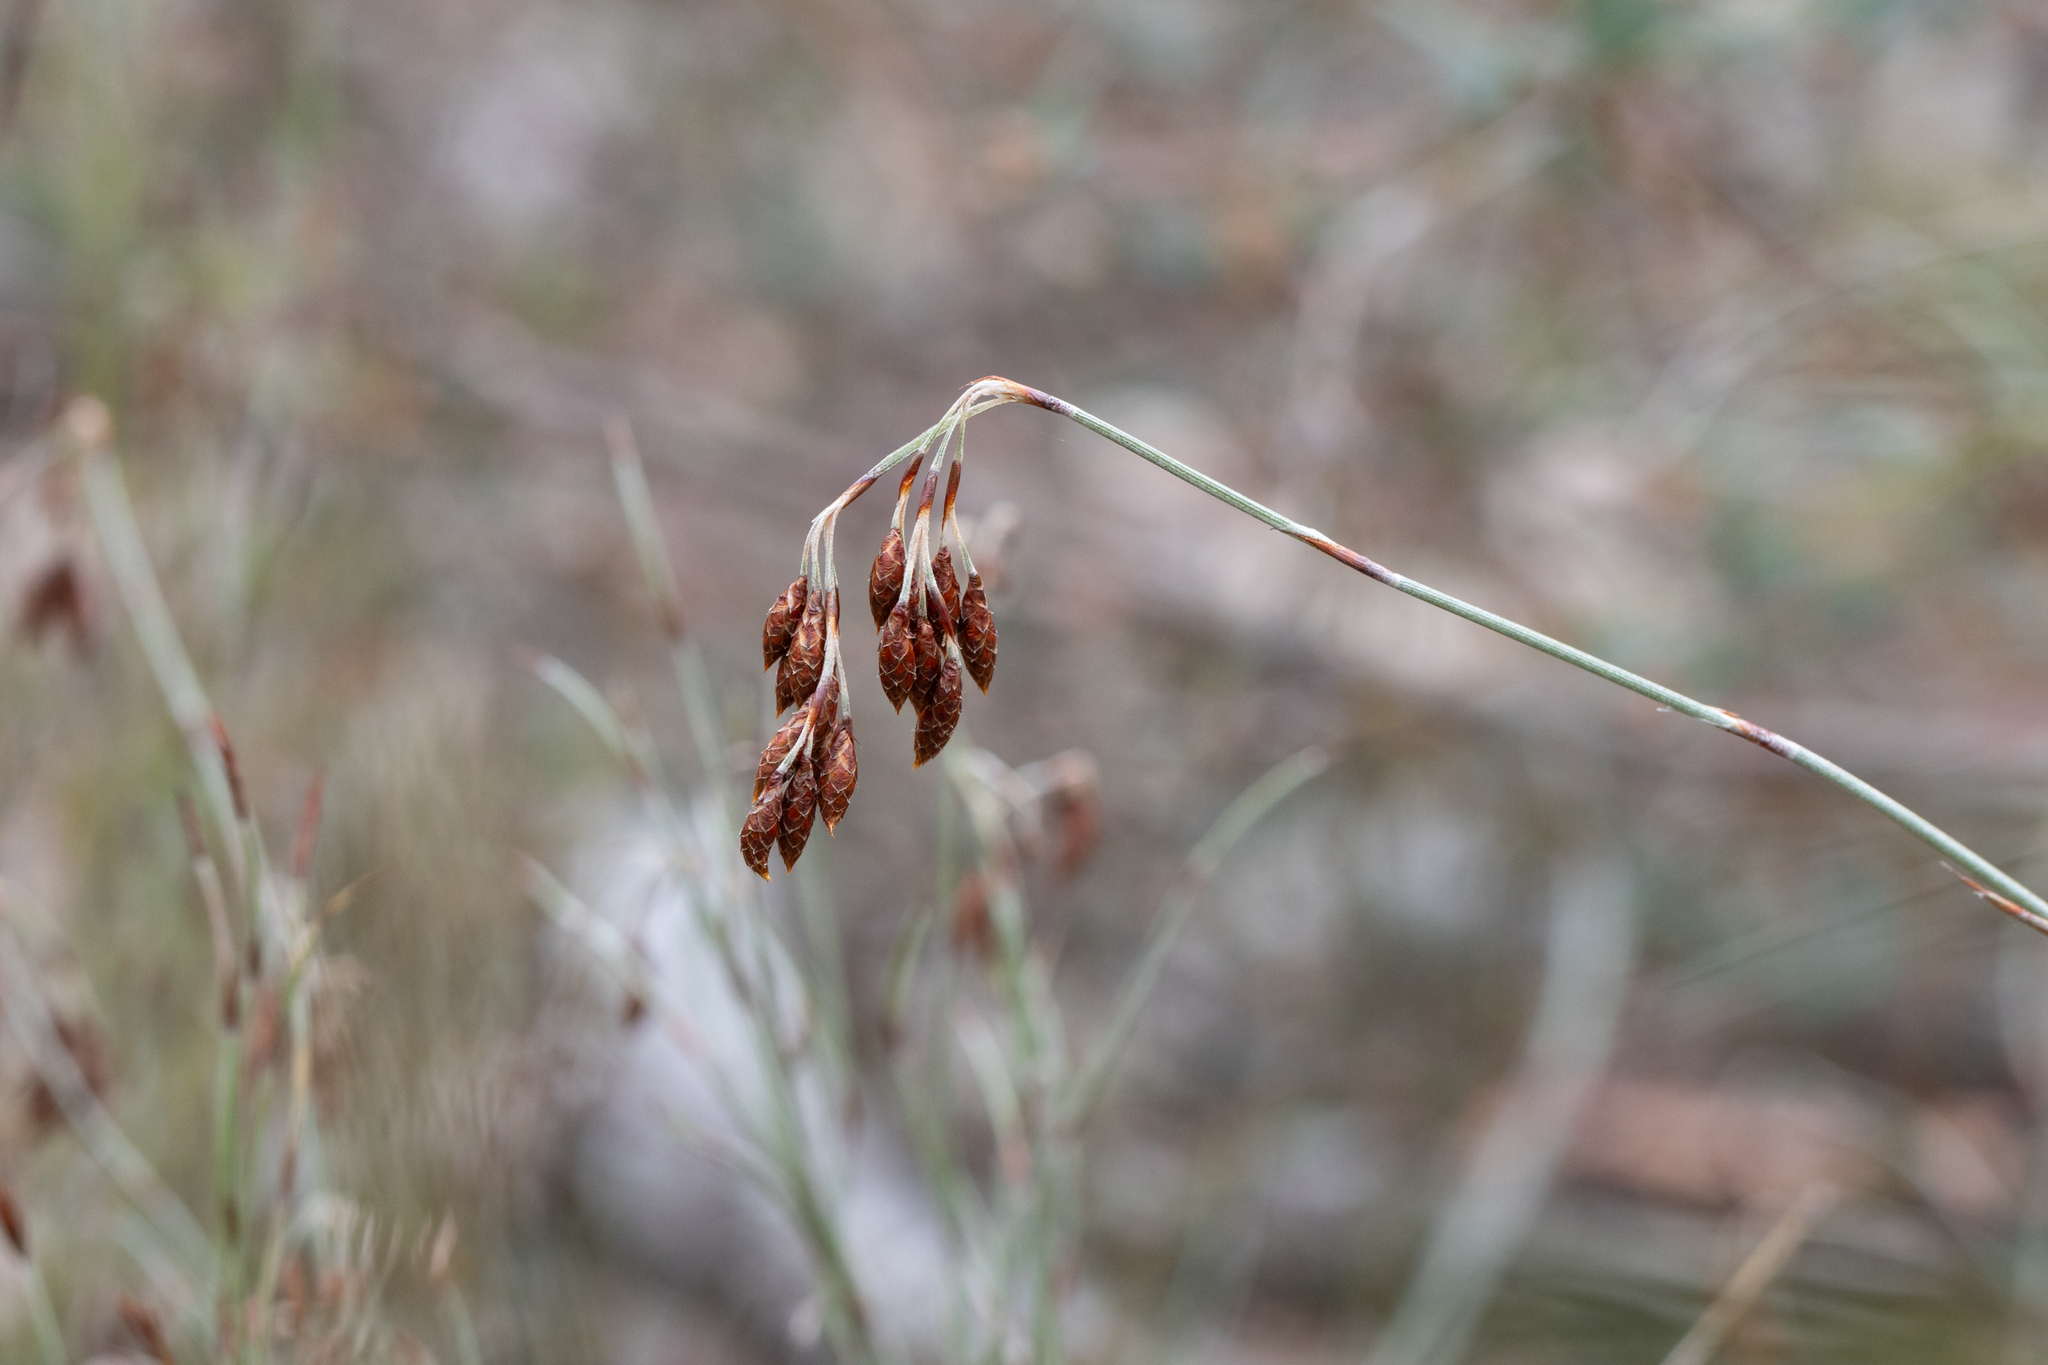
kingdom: Plantae
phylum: Tracheophyta
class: Liliopsida
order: Poales
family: Restionaceae
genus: Hypolaena
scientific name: Hypolaena fastigiata
